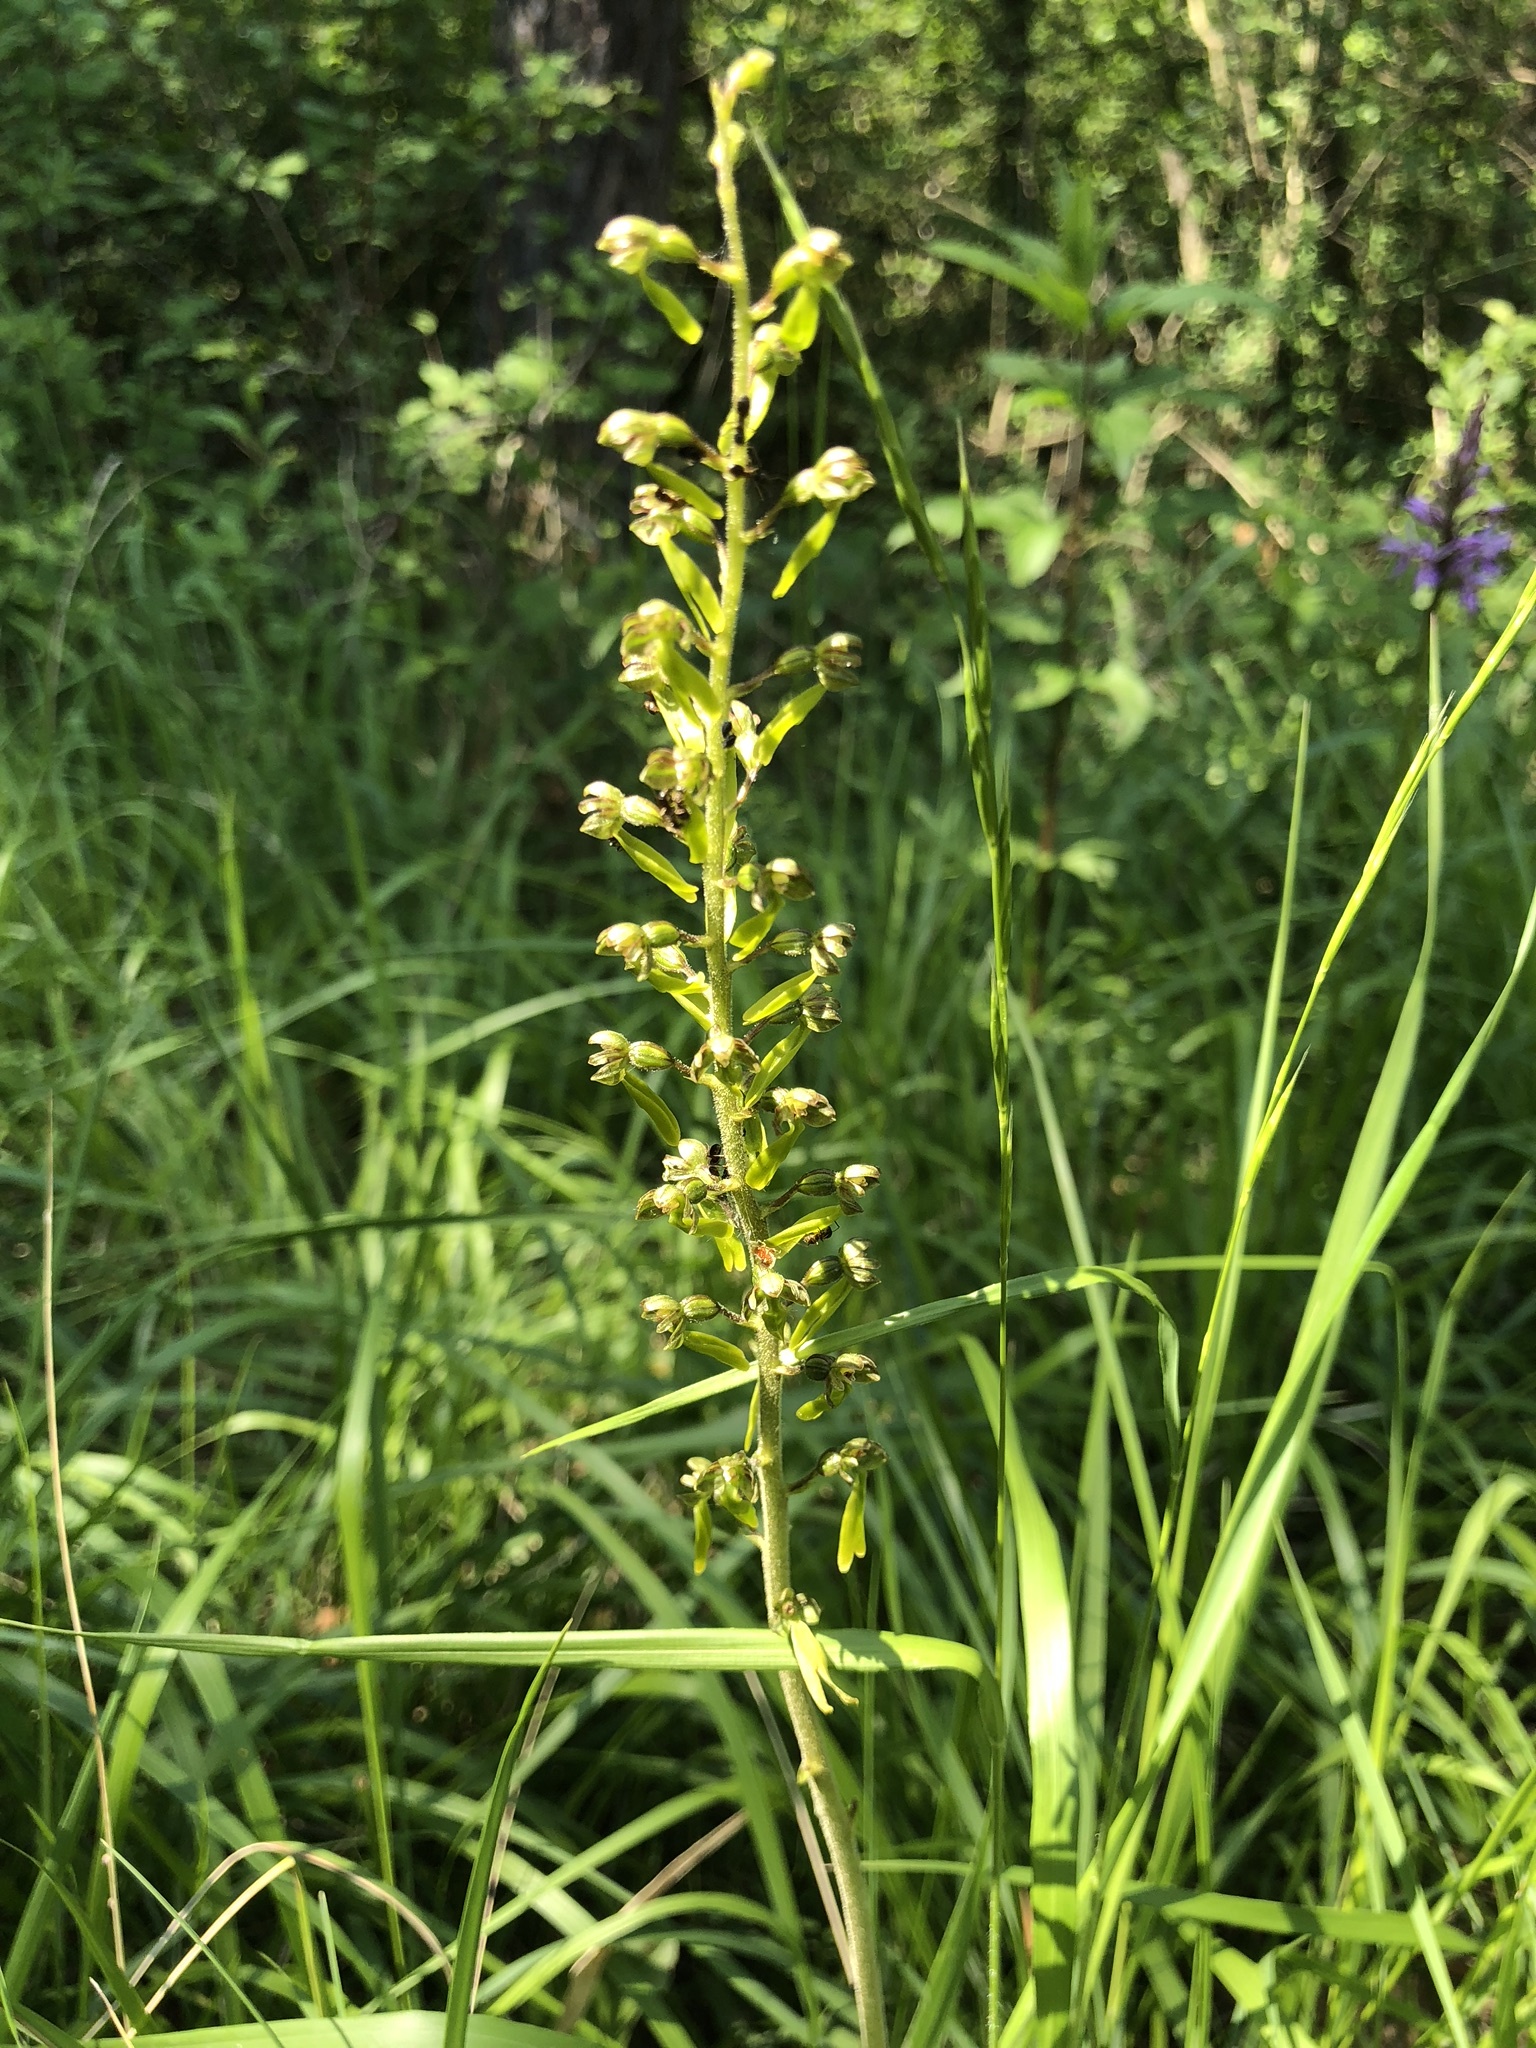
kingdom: Plantae
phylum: Tracheophyta
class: Liliopsida
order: Asparagales
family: Orchidaceae
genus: Neottia
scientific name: Neottia ovata
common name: Common twayblade
